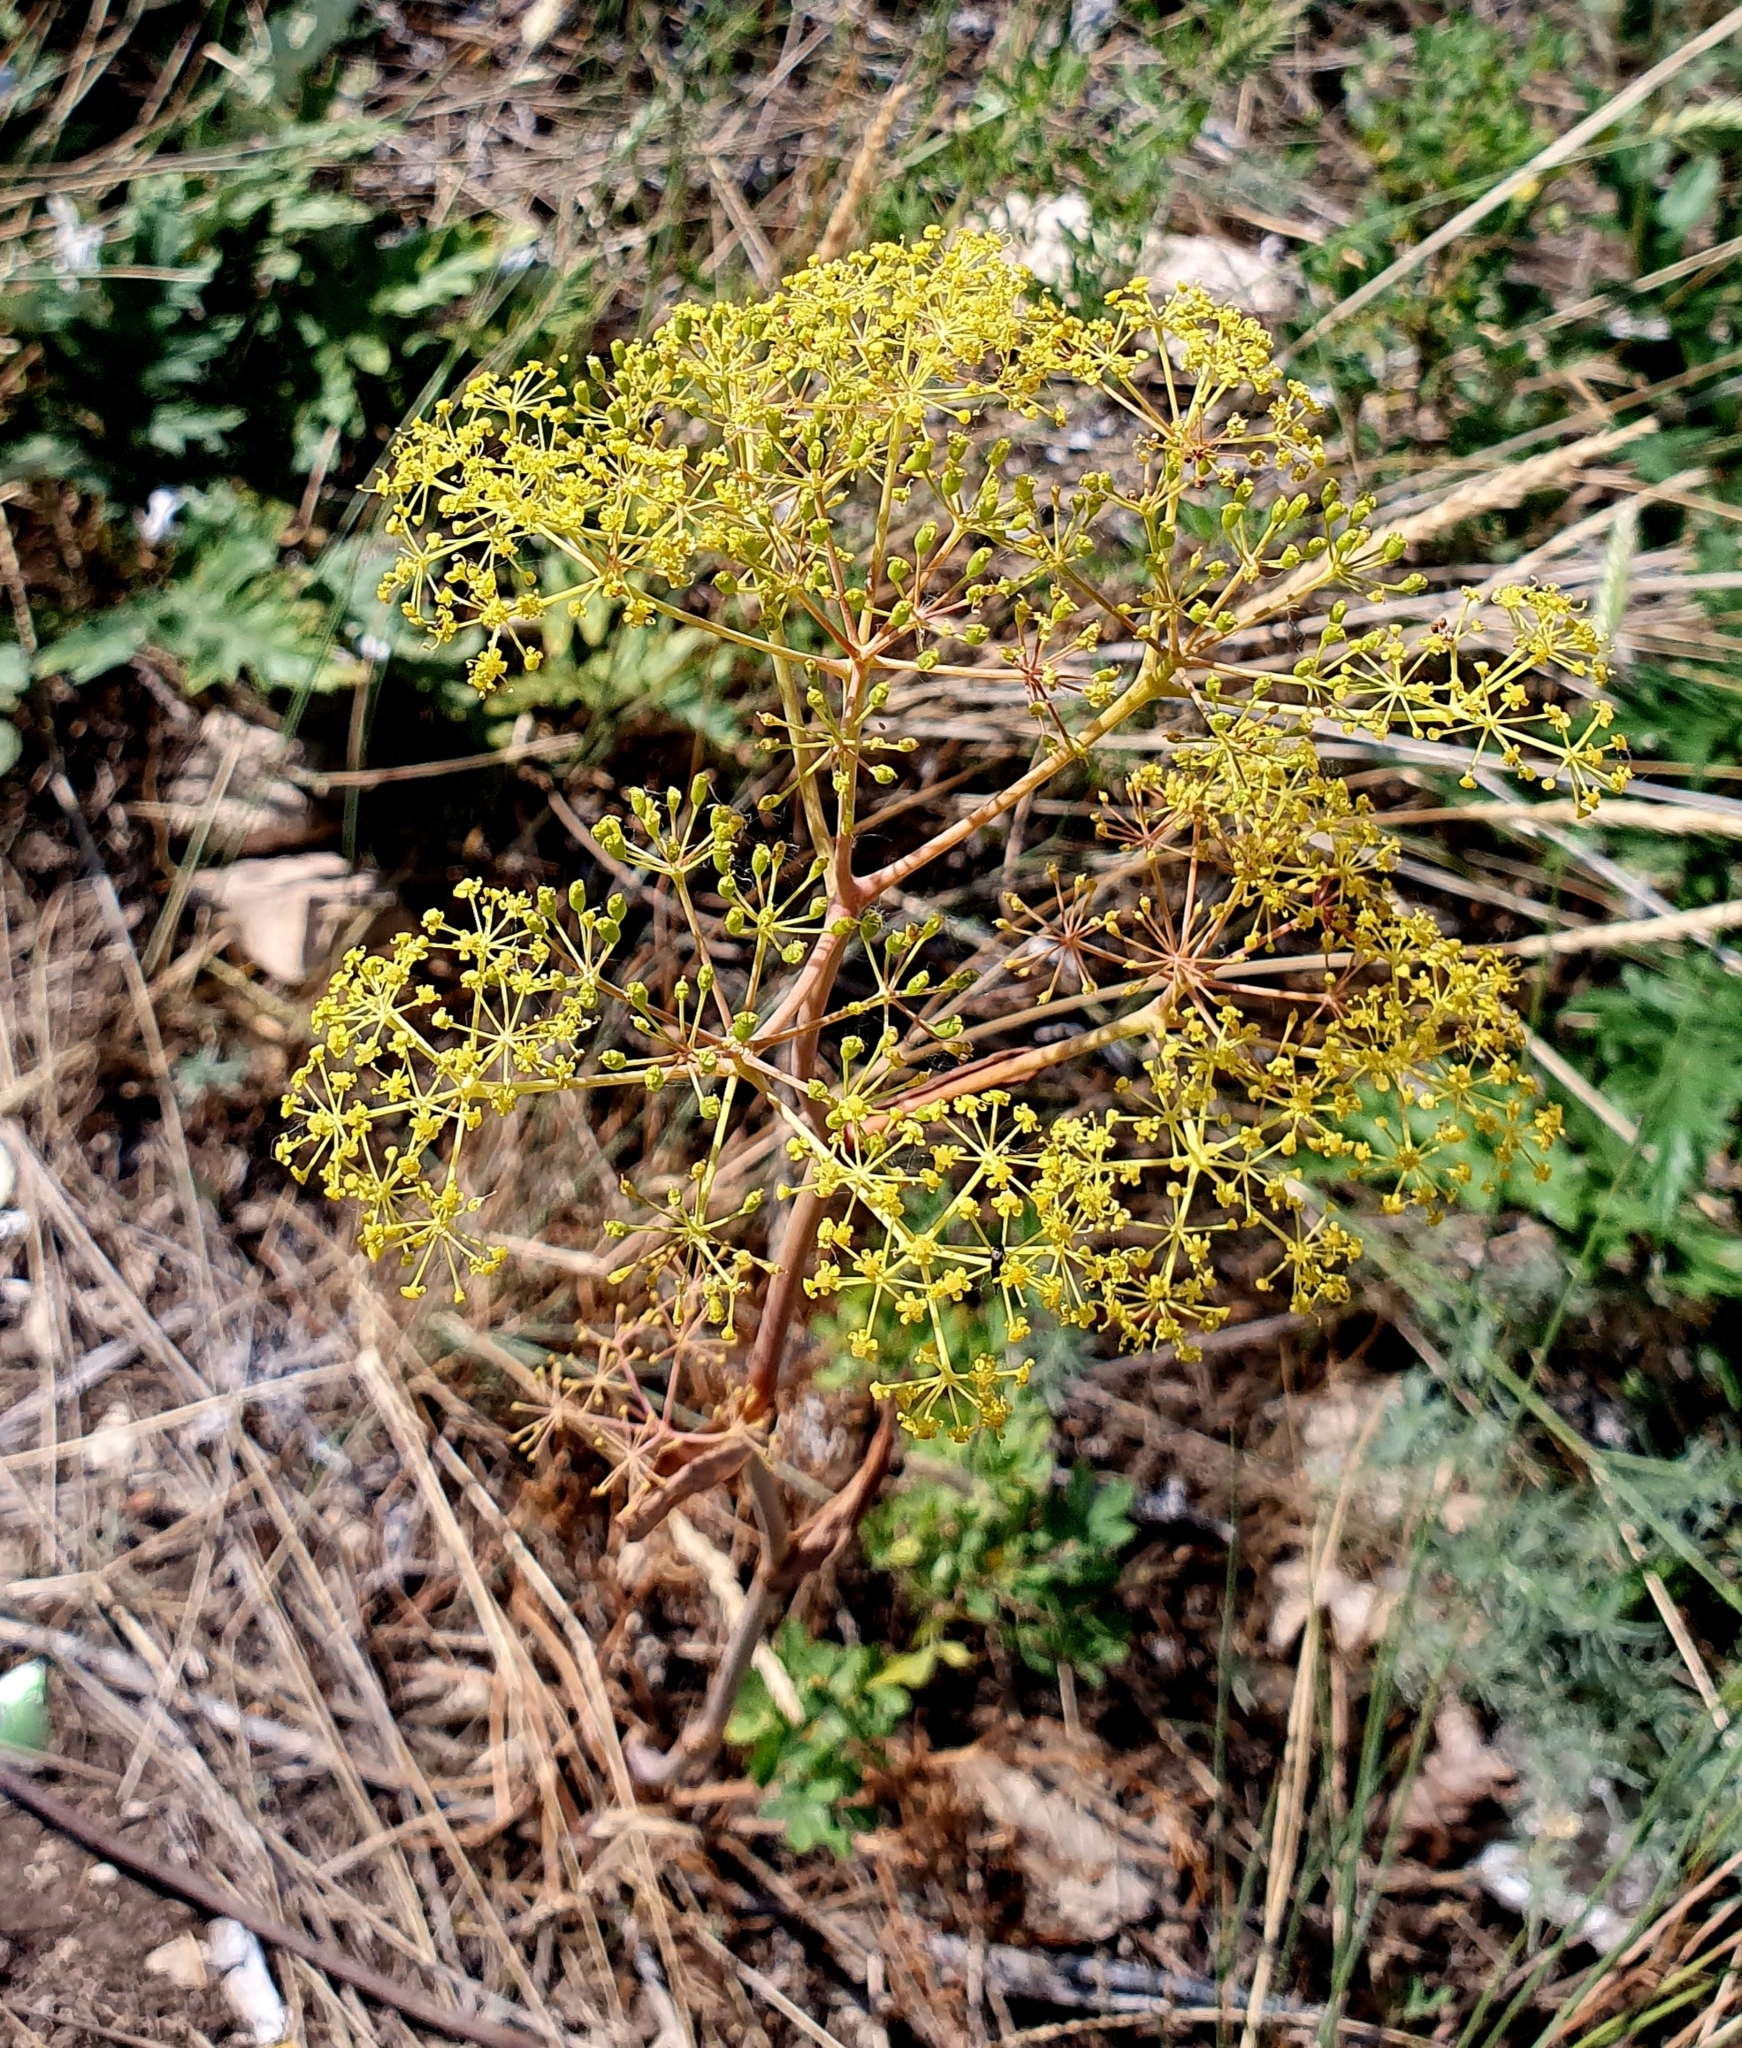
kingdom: Plantae
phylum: Tracheophyta
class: Magnoliopsida
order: Apiales
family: Apiaceae
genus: Ferula
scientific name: Ferula tatarica
